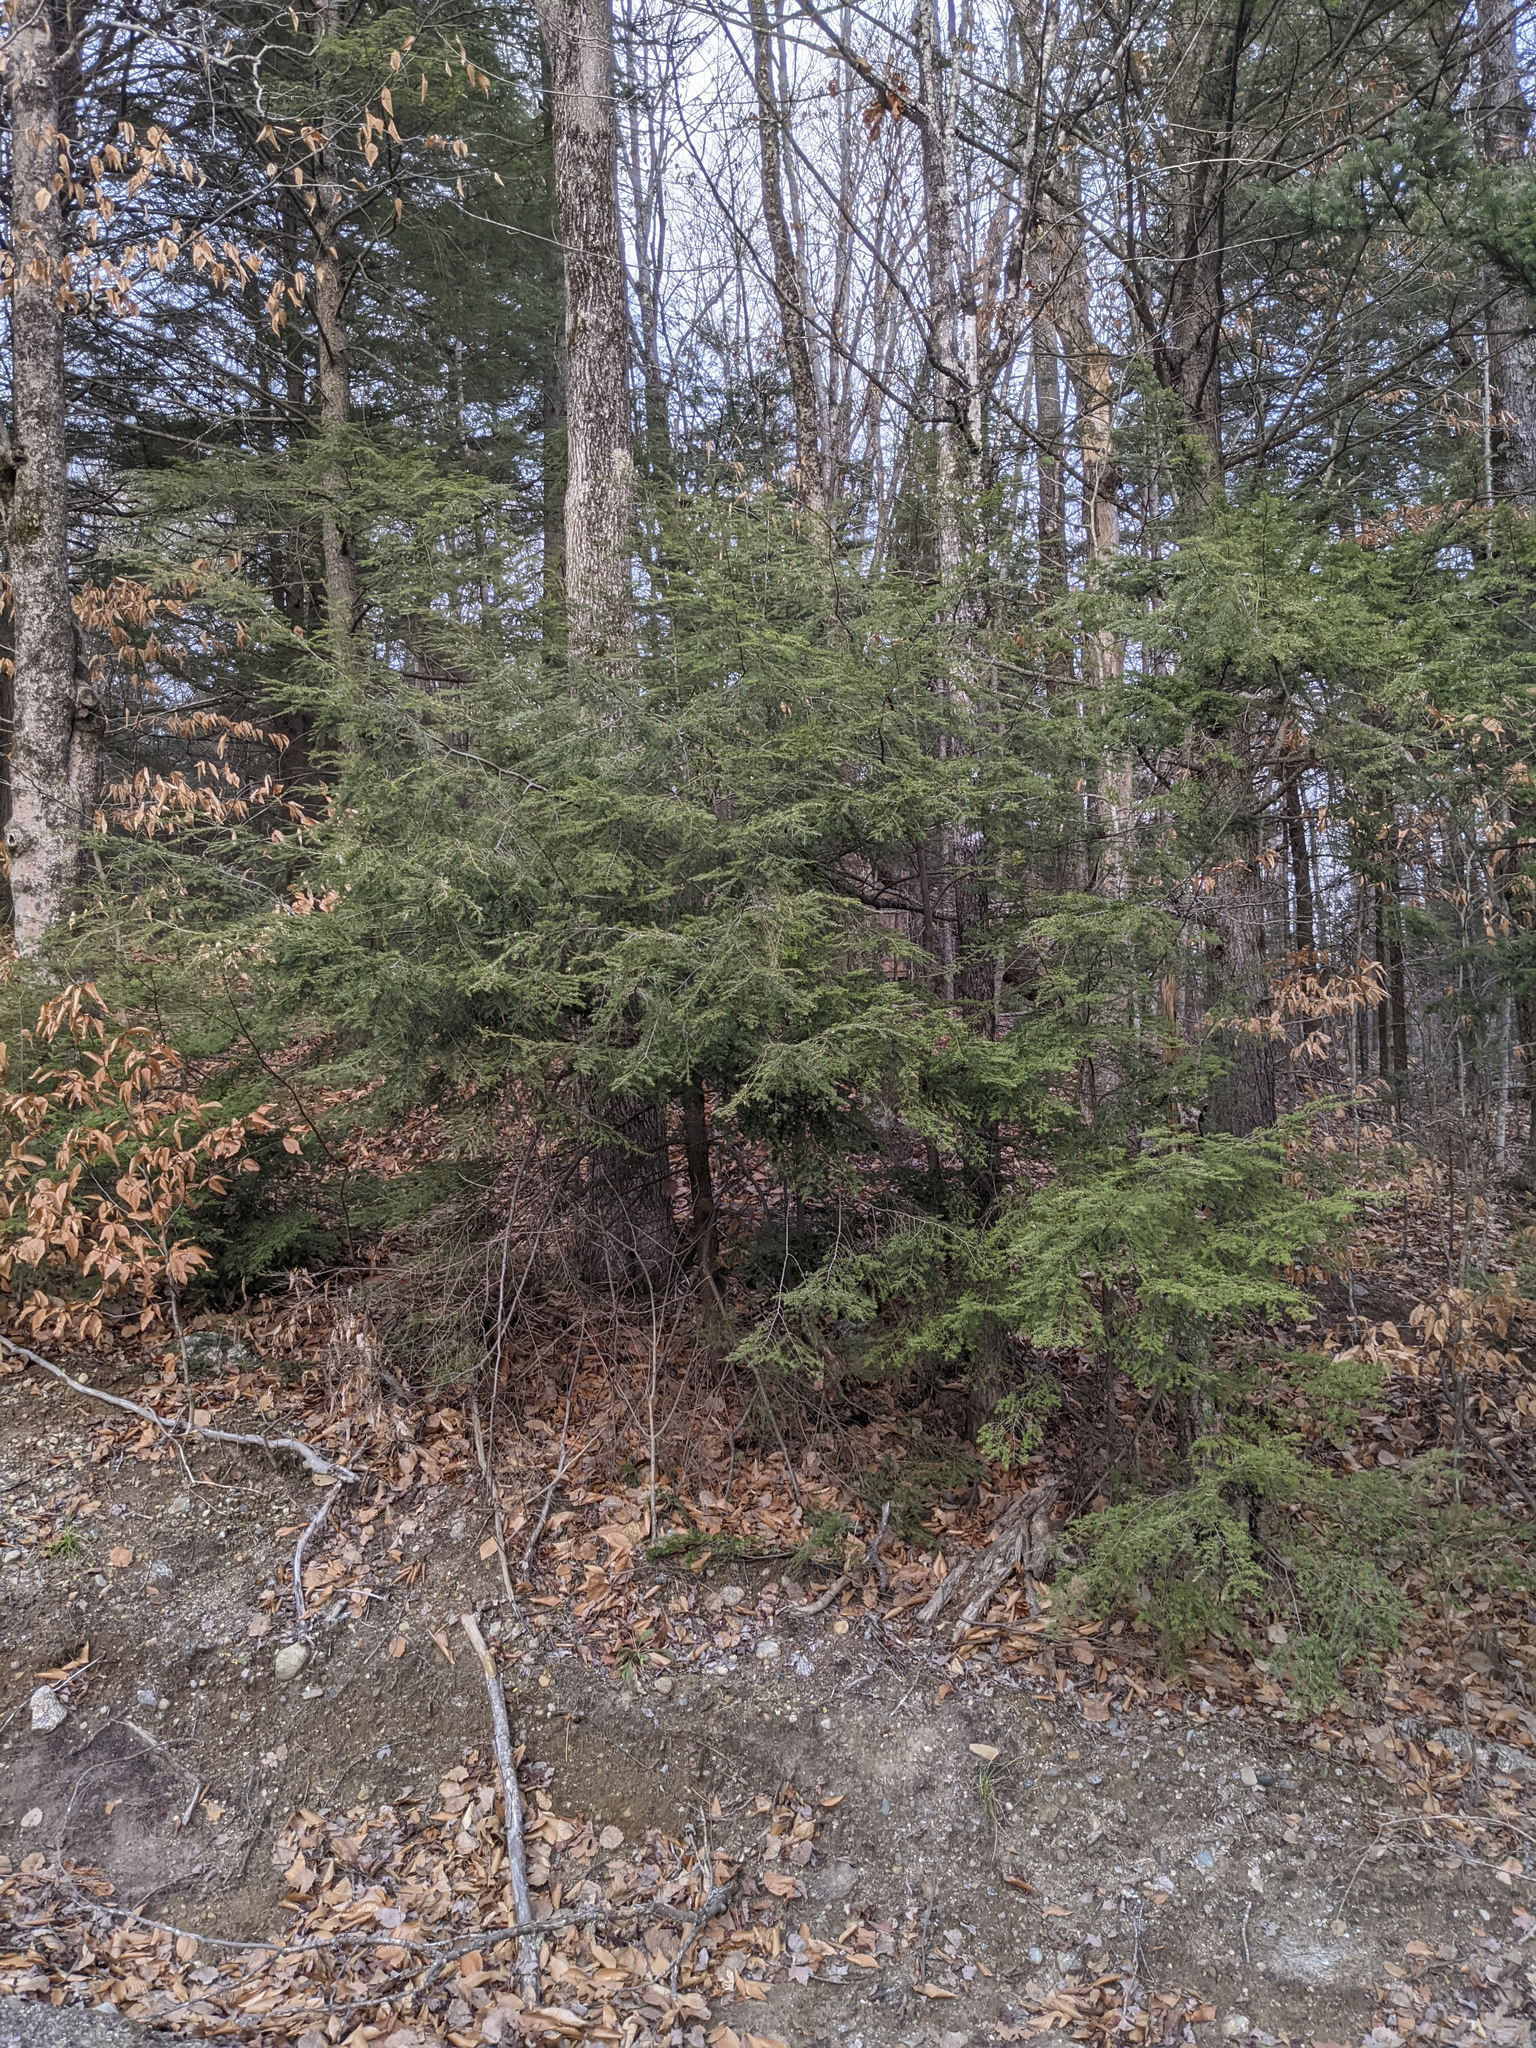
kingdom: Plantae
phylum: Tracheophyta
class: Pinopsida
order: Pinales
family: Pinaceae
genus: Tsuga
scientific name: Tsuga canadensis
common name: Eastern hemlock
